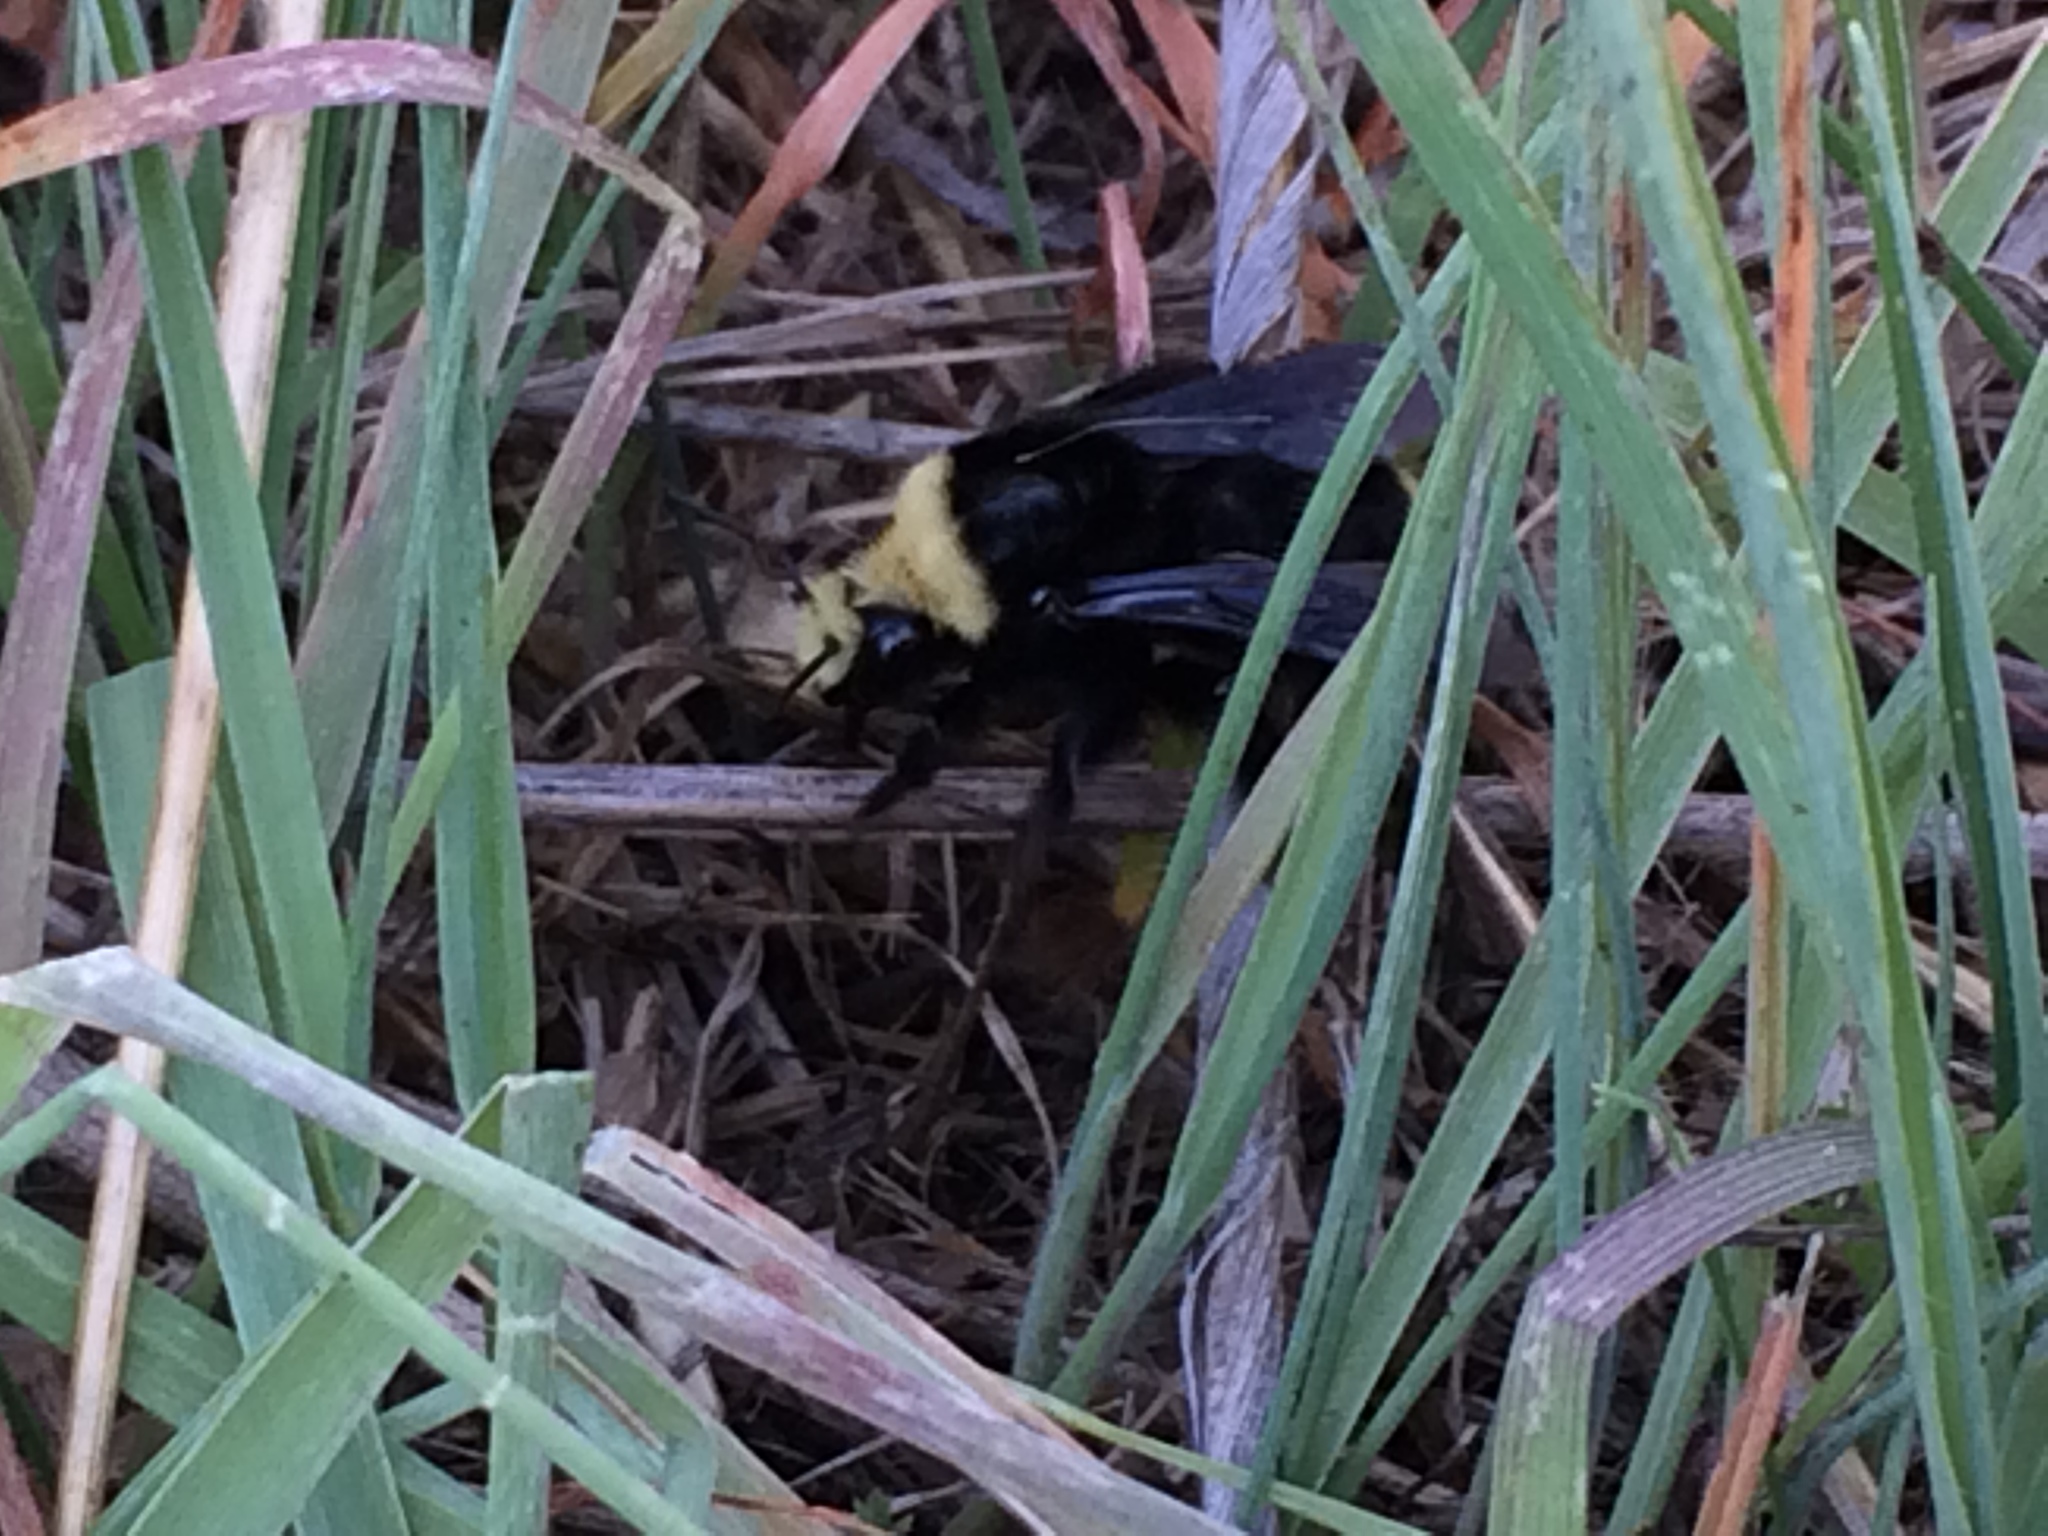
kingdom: Animalia
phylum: Arthropoda
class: Insecta
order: Hymenoptera
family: Apidae
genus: Bombus
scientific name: Bombus vosnesenskii
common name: Vosnesensky bumble bee
